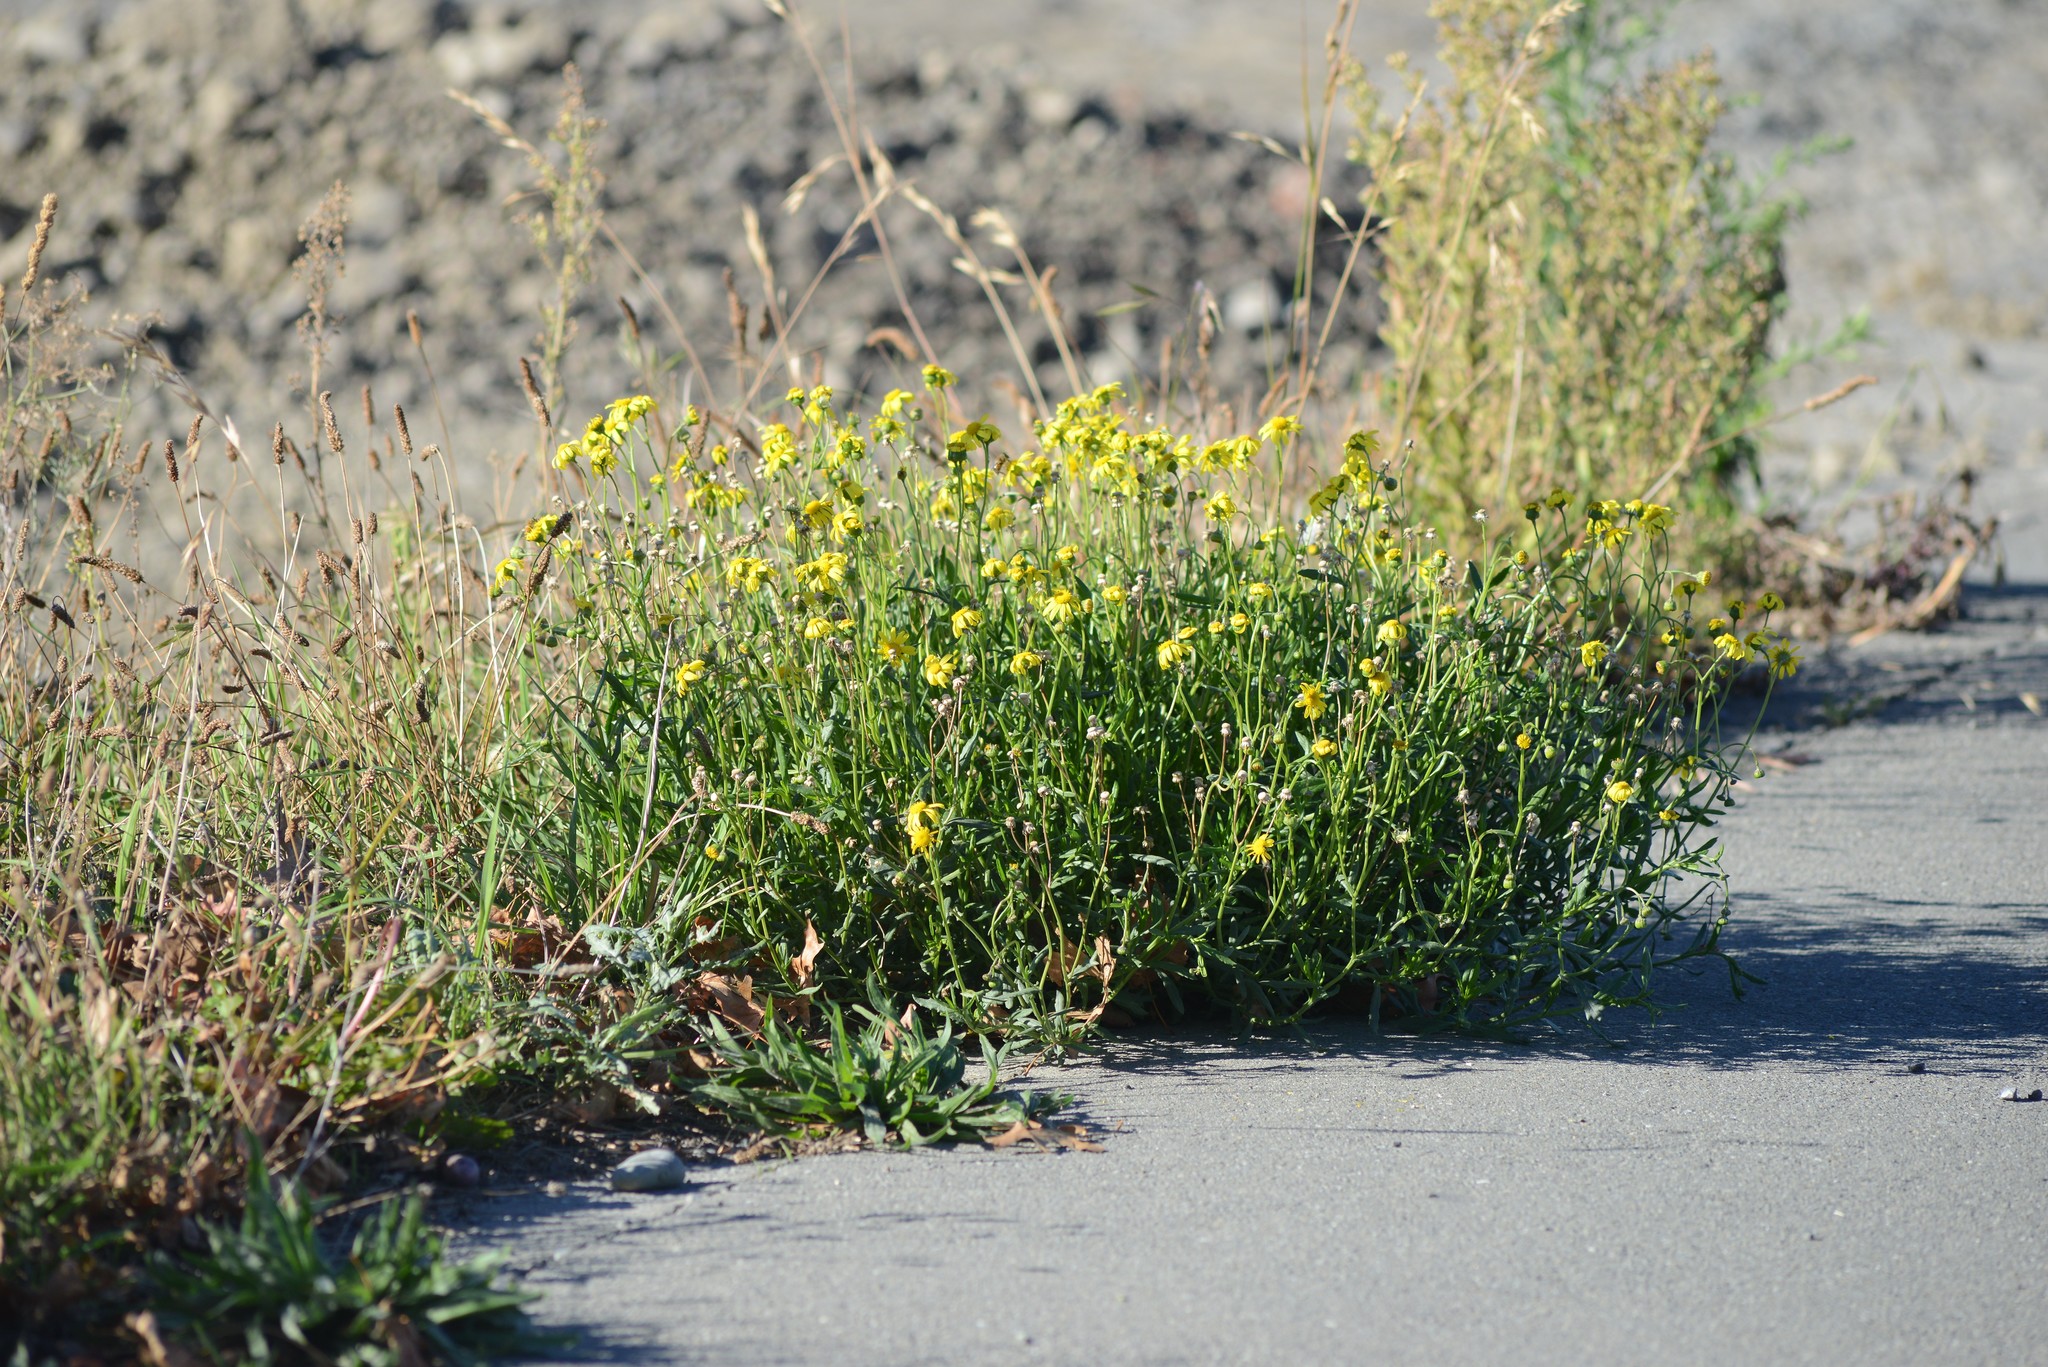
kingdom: Plantae
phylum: Tracheophyta
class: Magnoliopsida
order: Asterales
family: Asteraceae
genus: Senecio
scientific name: Senecio skirrhodon
